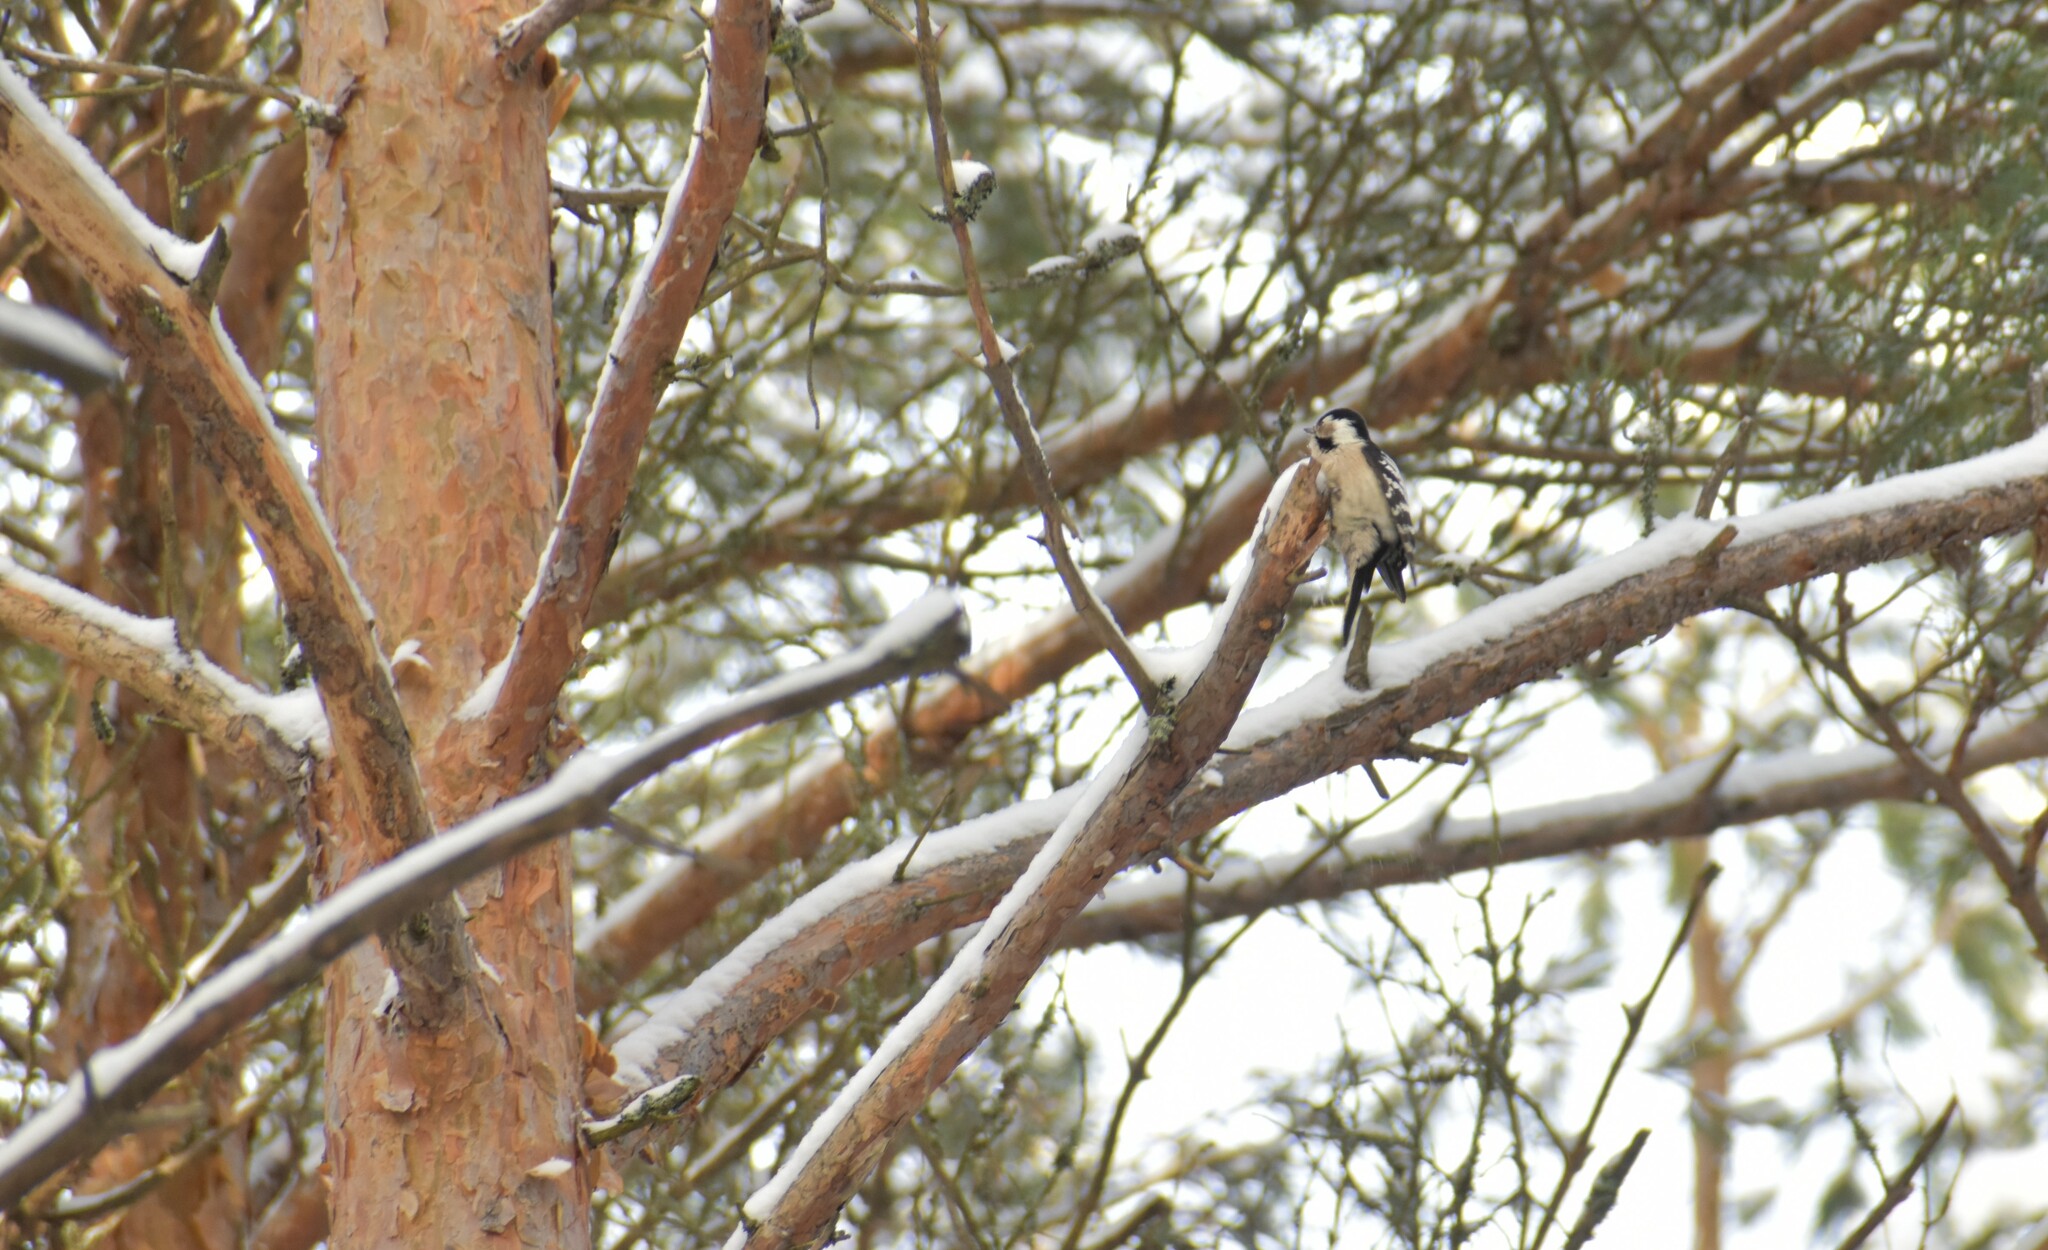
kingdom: Animalia
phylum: Chordata
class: Aves
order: Piciformes
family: Picidae
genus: Dryobates
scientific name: Dryobates minor
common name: Lesser spotted woodpecker
